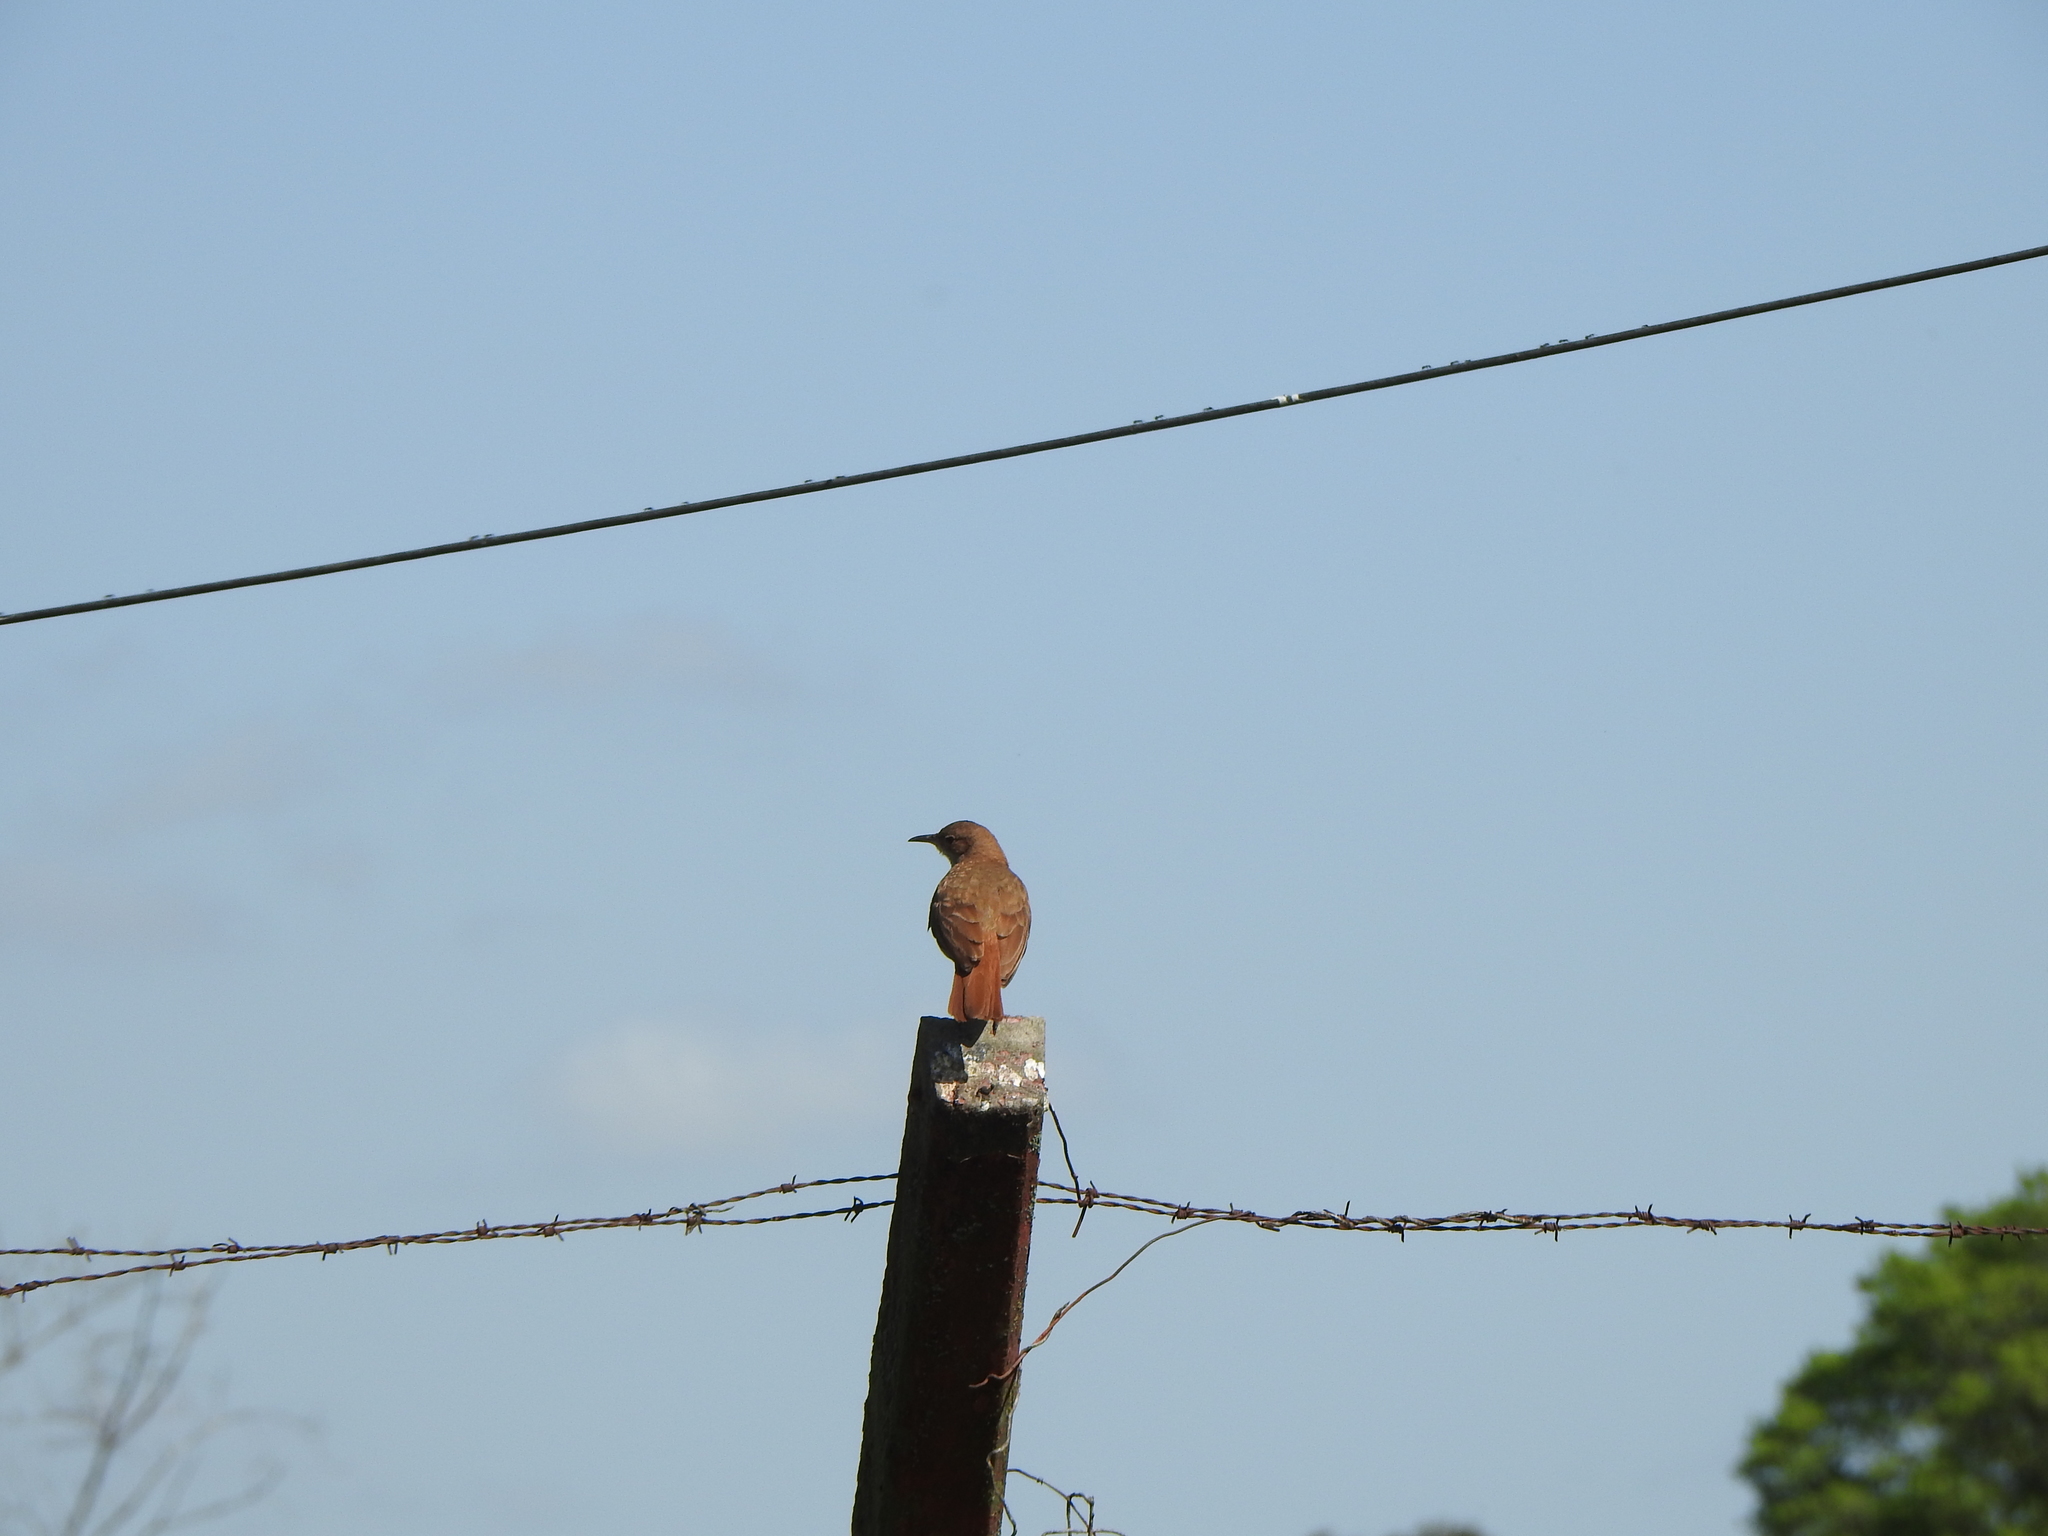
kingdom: Animalia
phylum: Chordata
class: Aves
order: Passeriformes
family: Furnariidae
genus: Furnarius
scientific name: Furnarius rufus
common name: Rufous hornero
